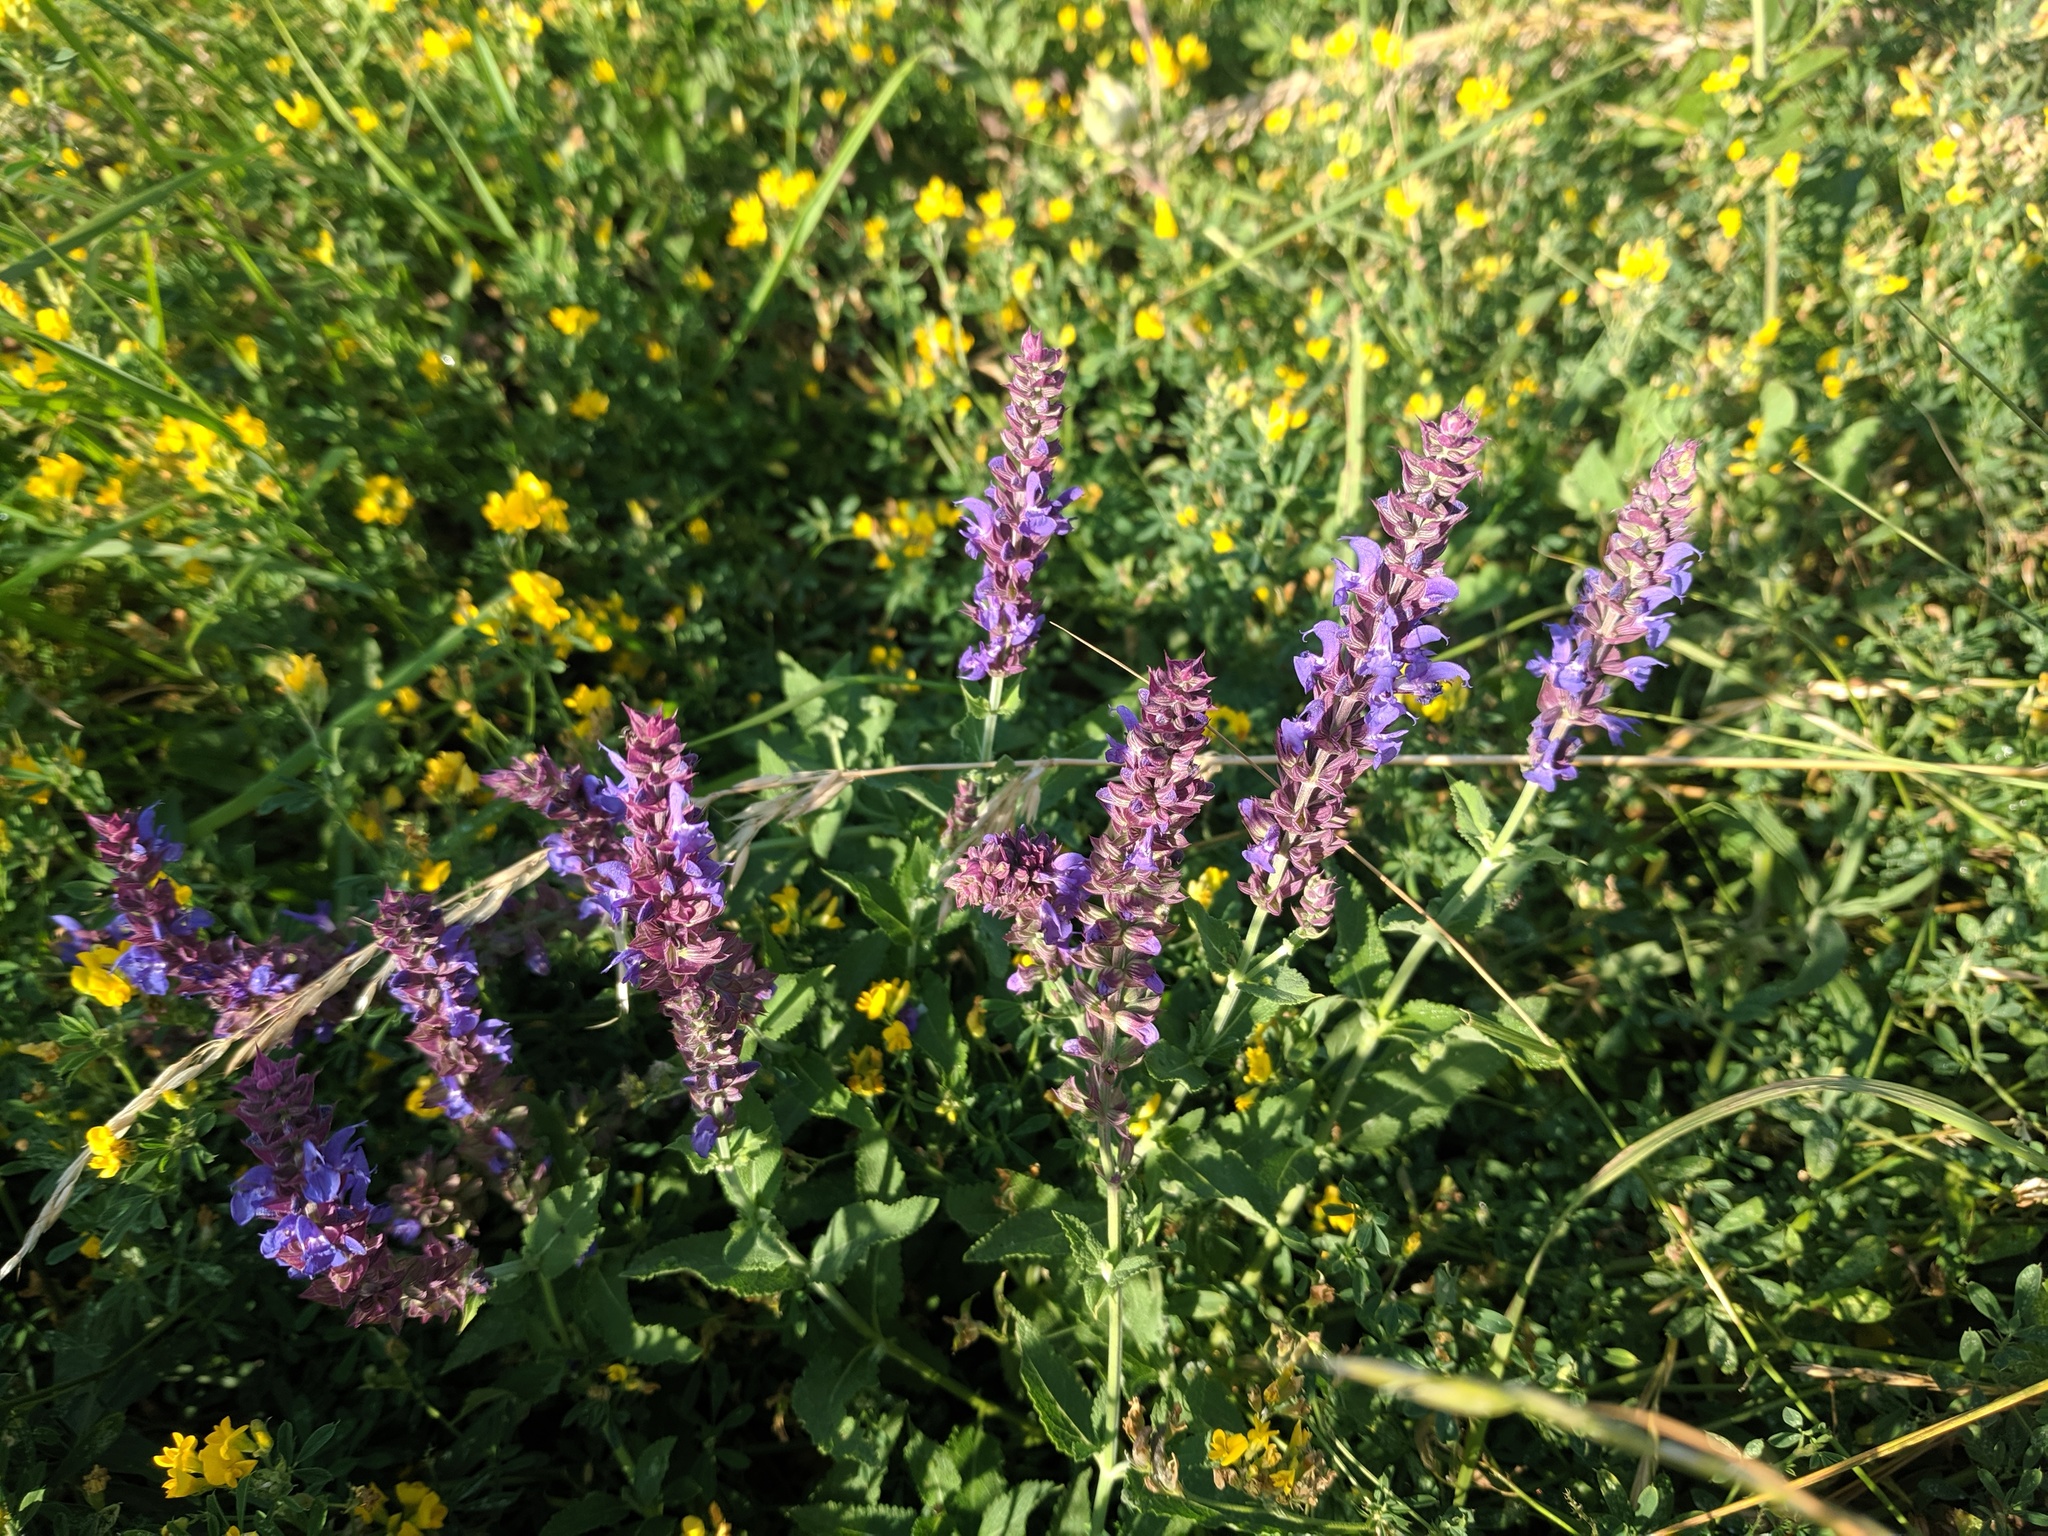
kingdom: Plantae
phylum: Tracheophyta
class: Magnoliopsida
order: Lamiales
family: Lamiaceae
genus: Salvia
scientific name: Salvia nemorosa
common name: Balkan clary
